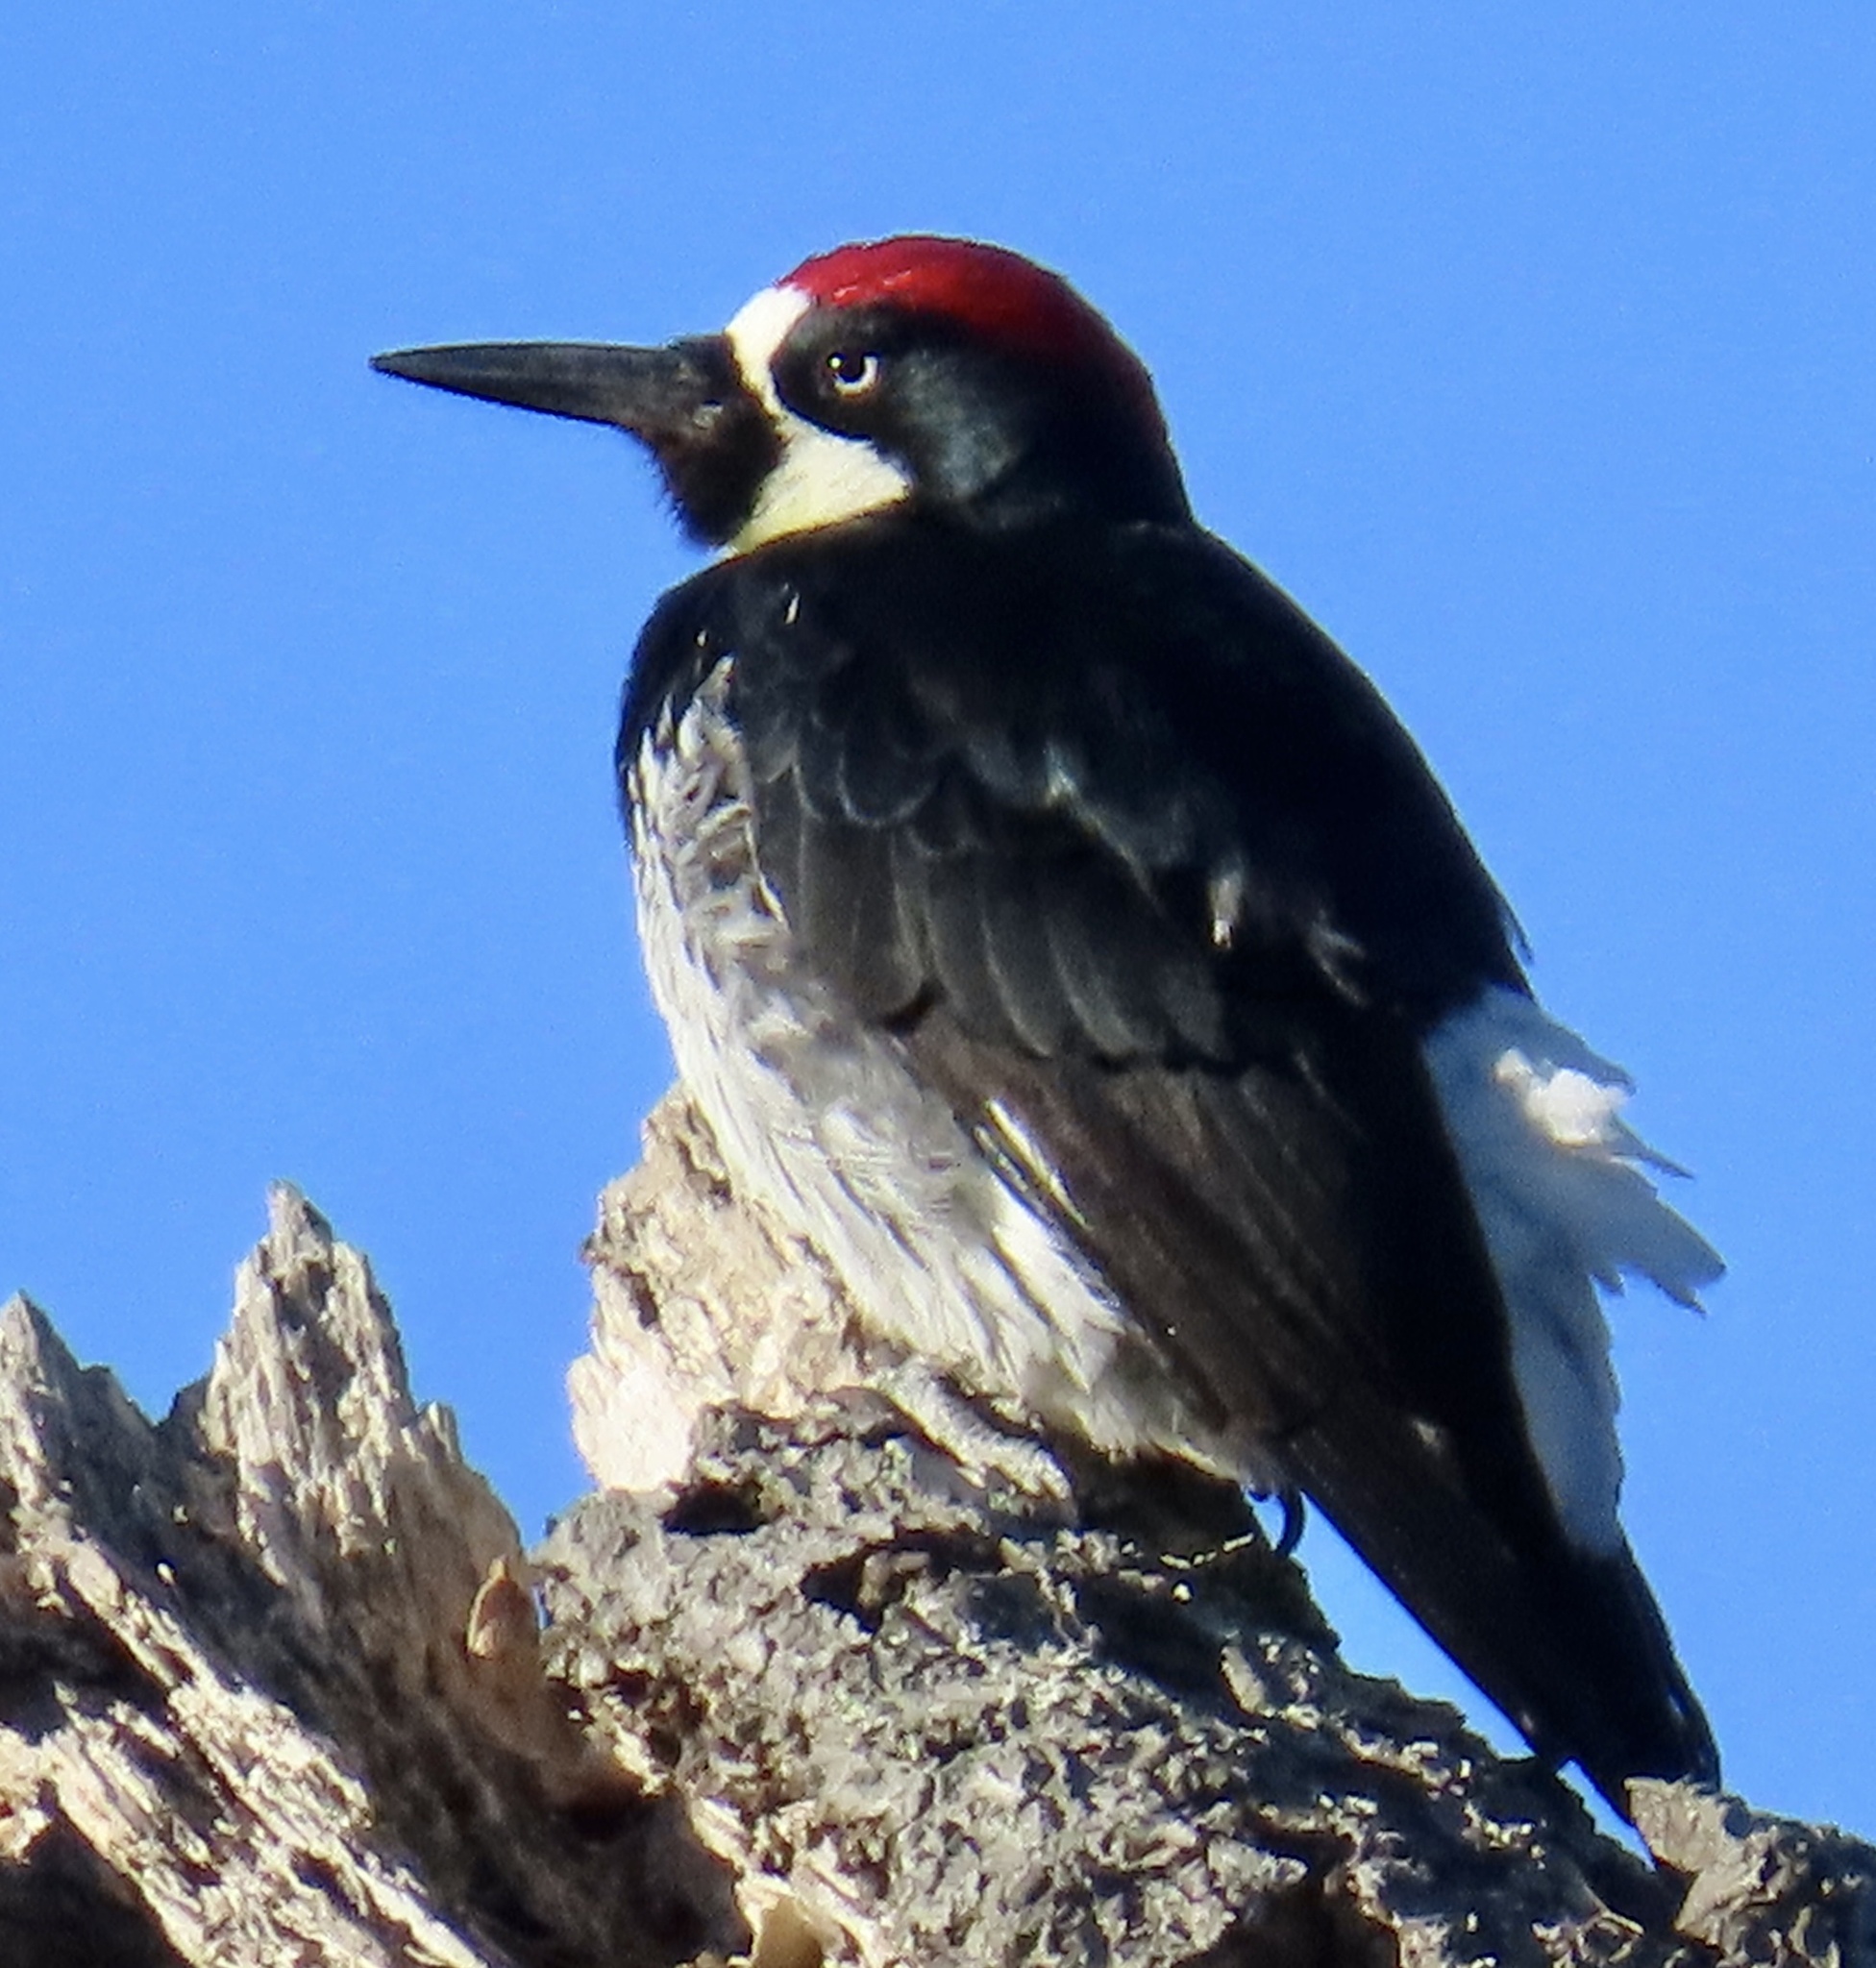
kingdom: Animalia
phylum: Chordata
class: Aves
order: Piciformes
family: Picidae
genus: Melanerpes
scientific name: Melanerpes formicivorus
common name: Acorn woodpecker
